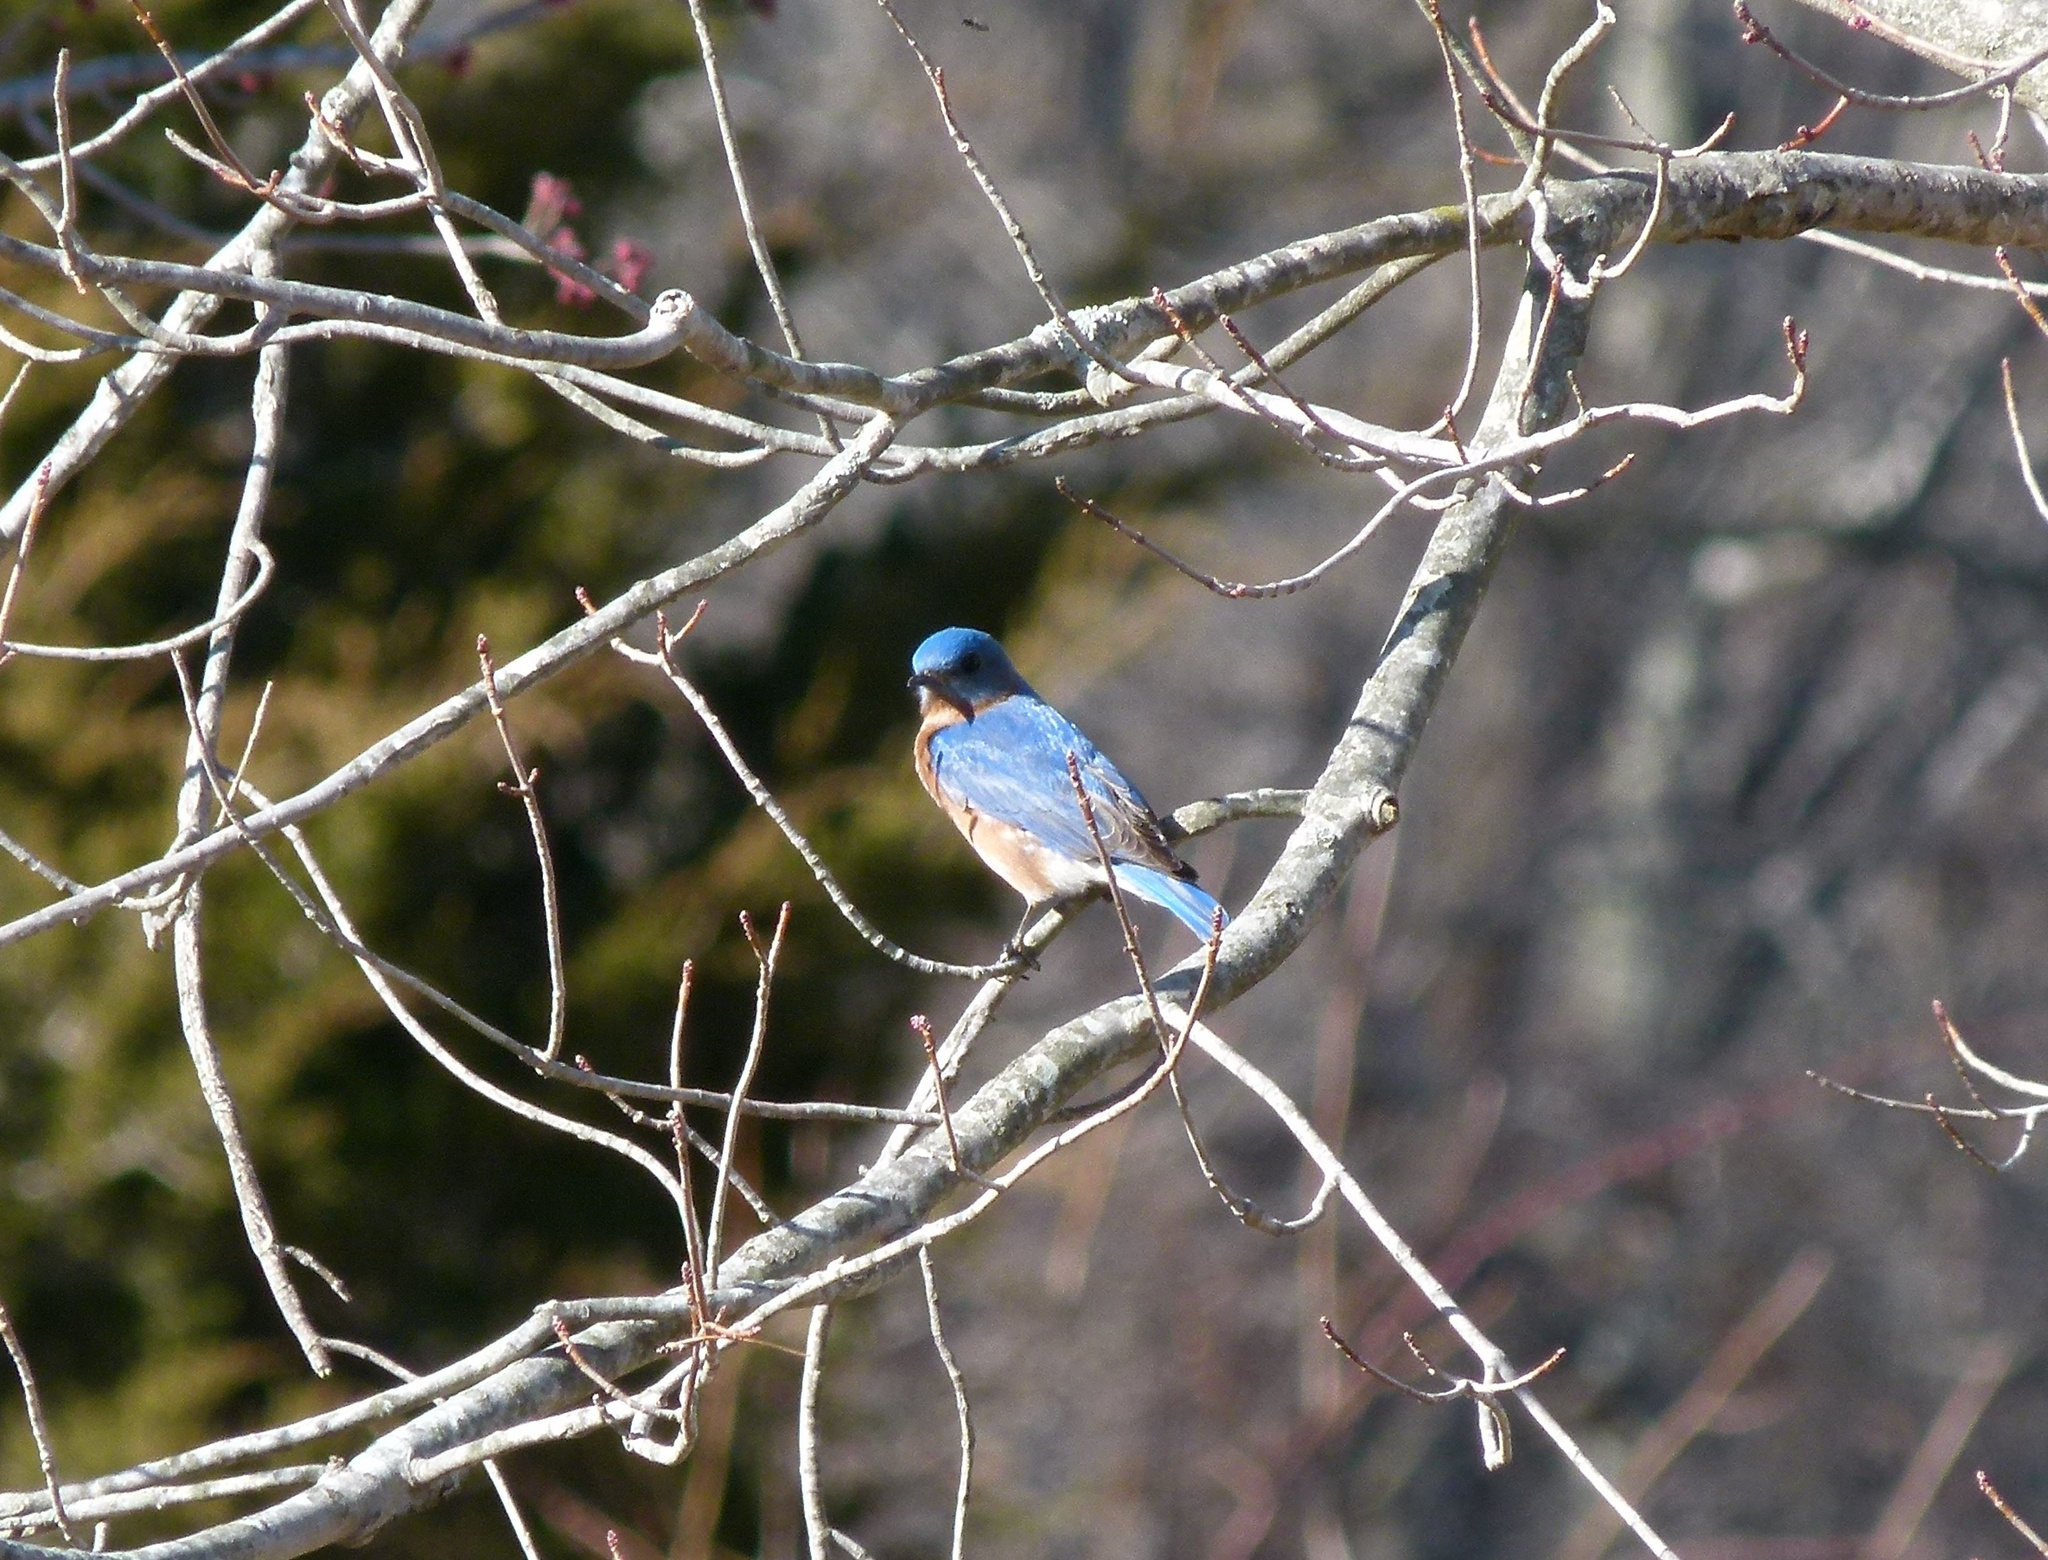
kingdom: Animalia
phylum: Chordata
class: Aves
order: Passeriformes
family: Turdidae
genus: Sialia
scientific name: Sialia sialis
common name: Eastern bluebird
